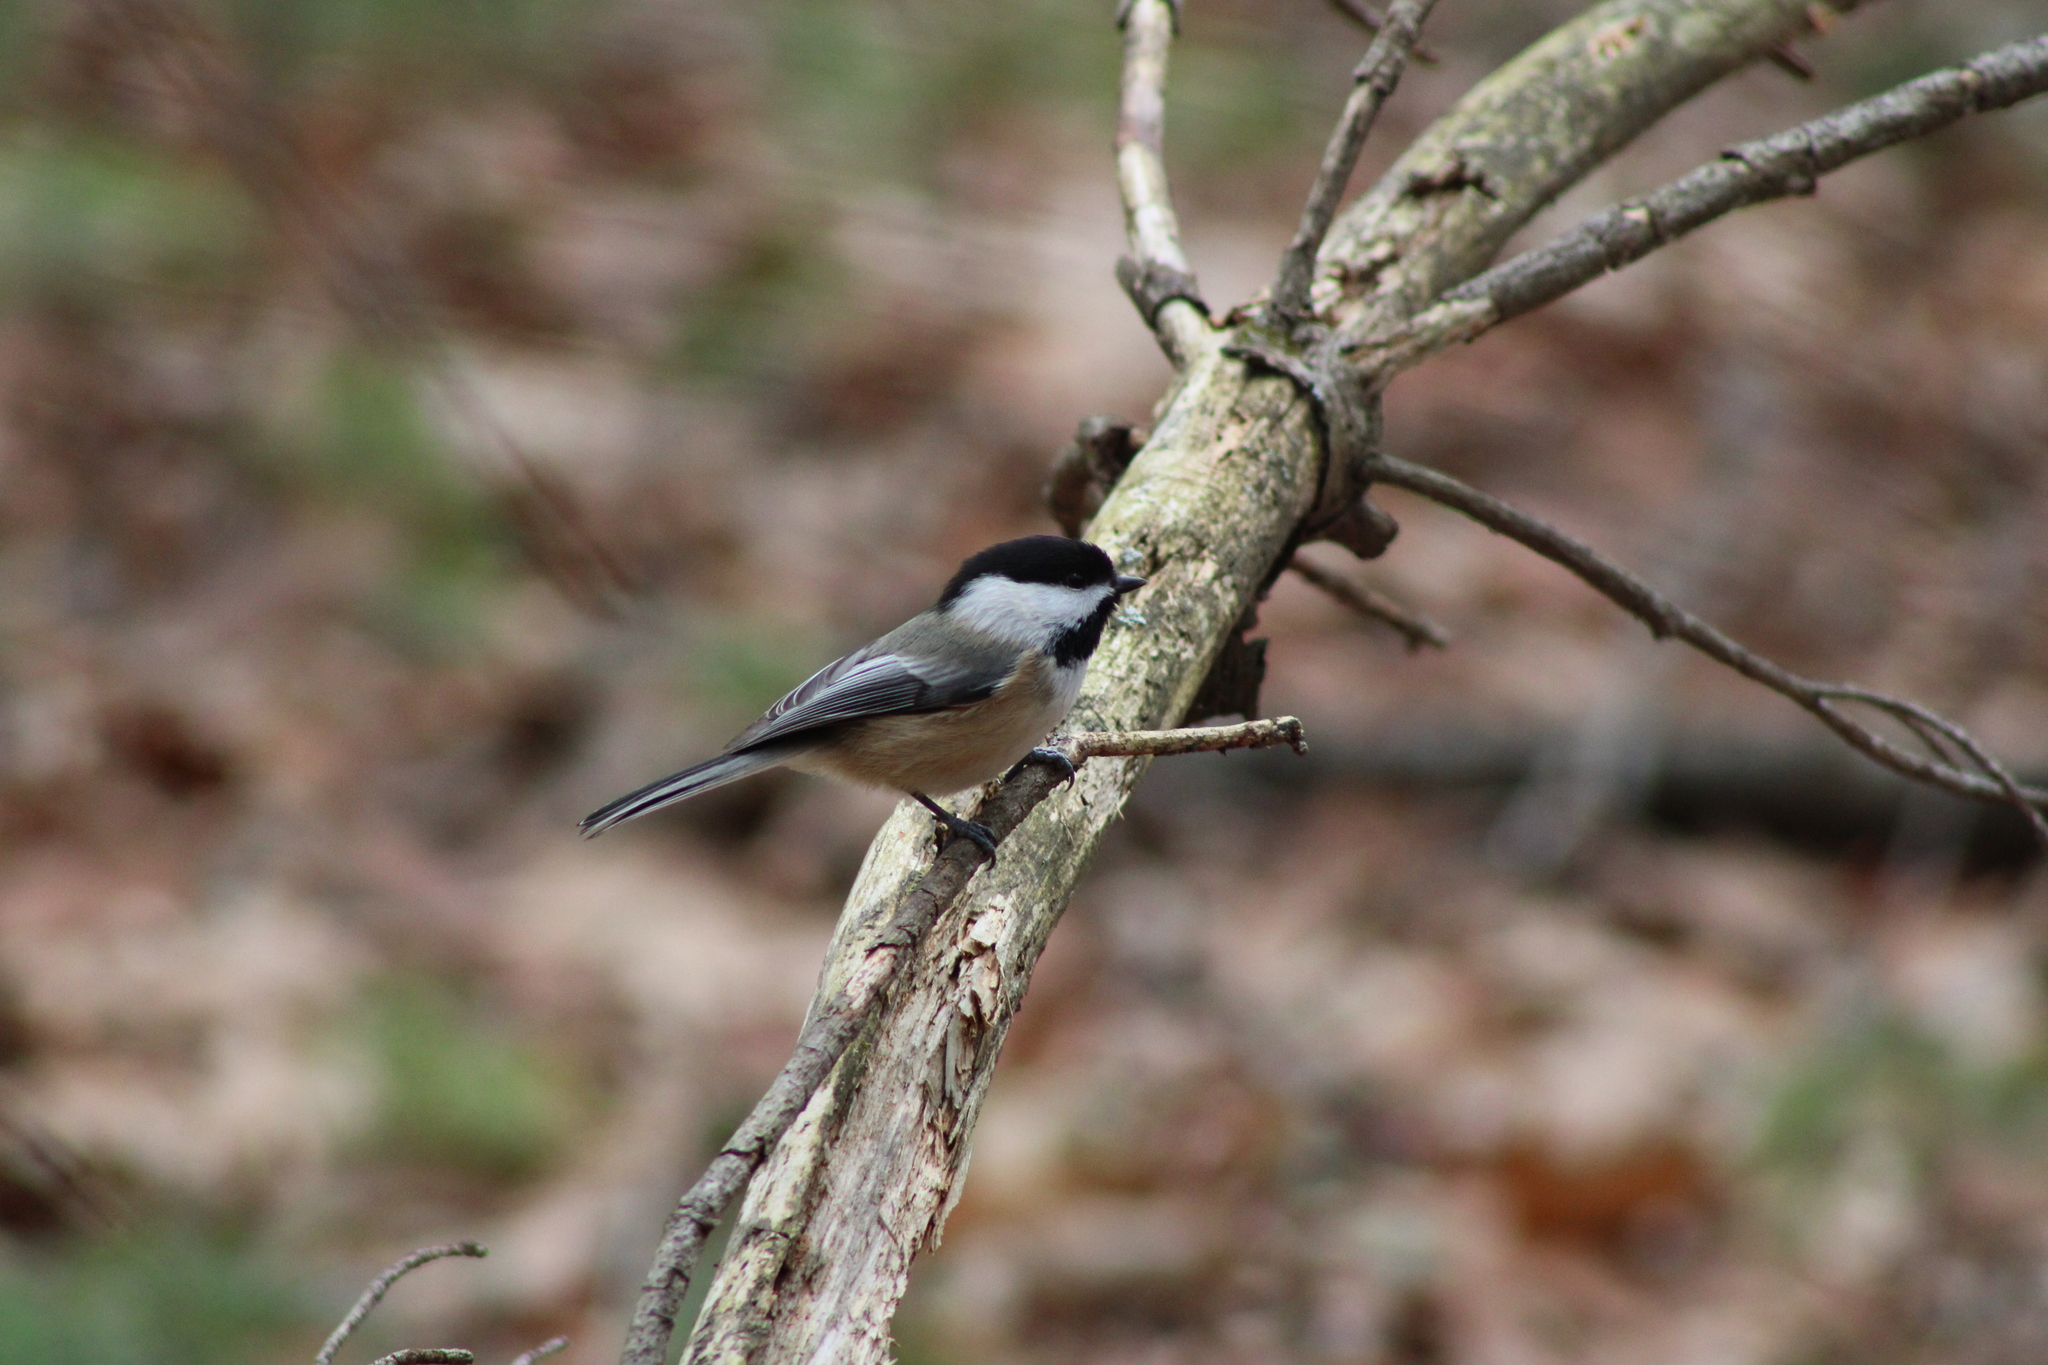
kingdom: Animalia
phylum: Chordata
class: Aves
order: Passeriformes
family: Paridae
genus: Poecile
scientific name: Poecile atricapillus
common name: Black-capped chickadee
